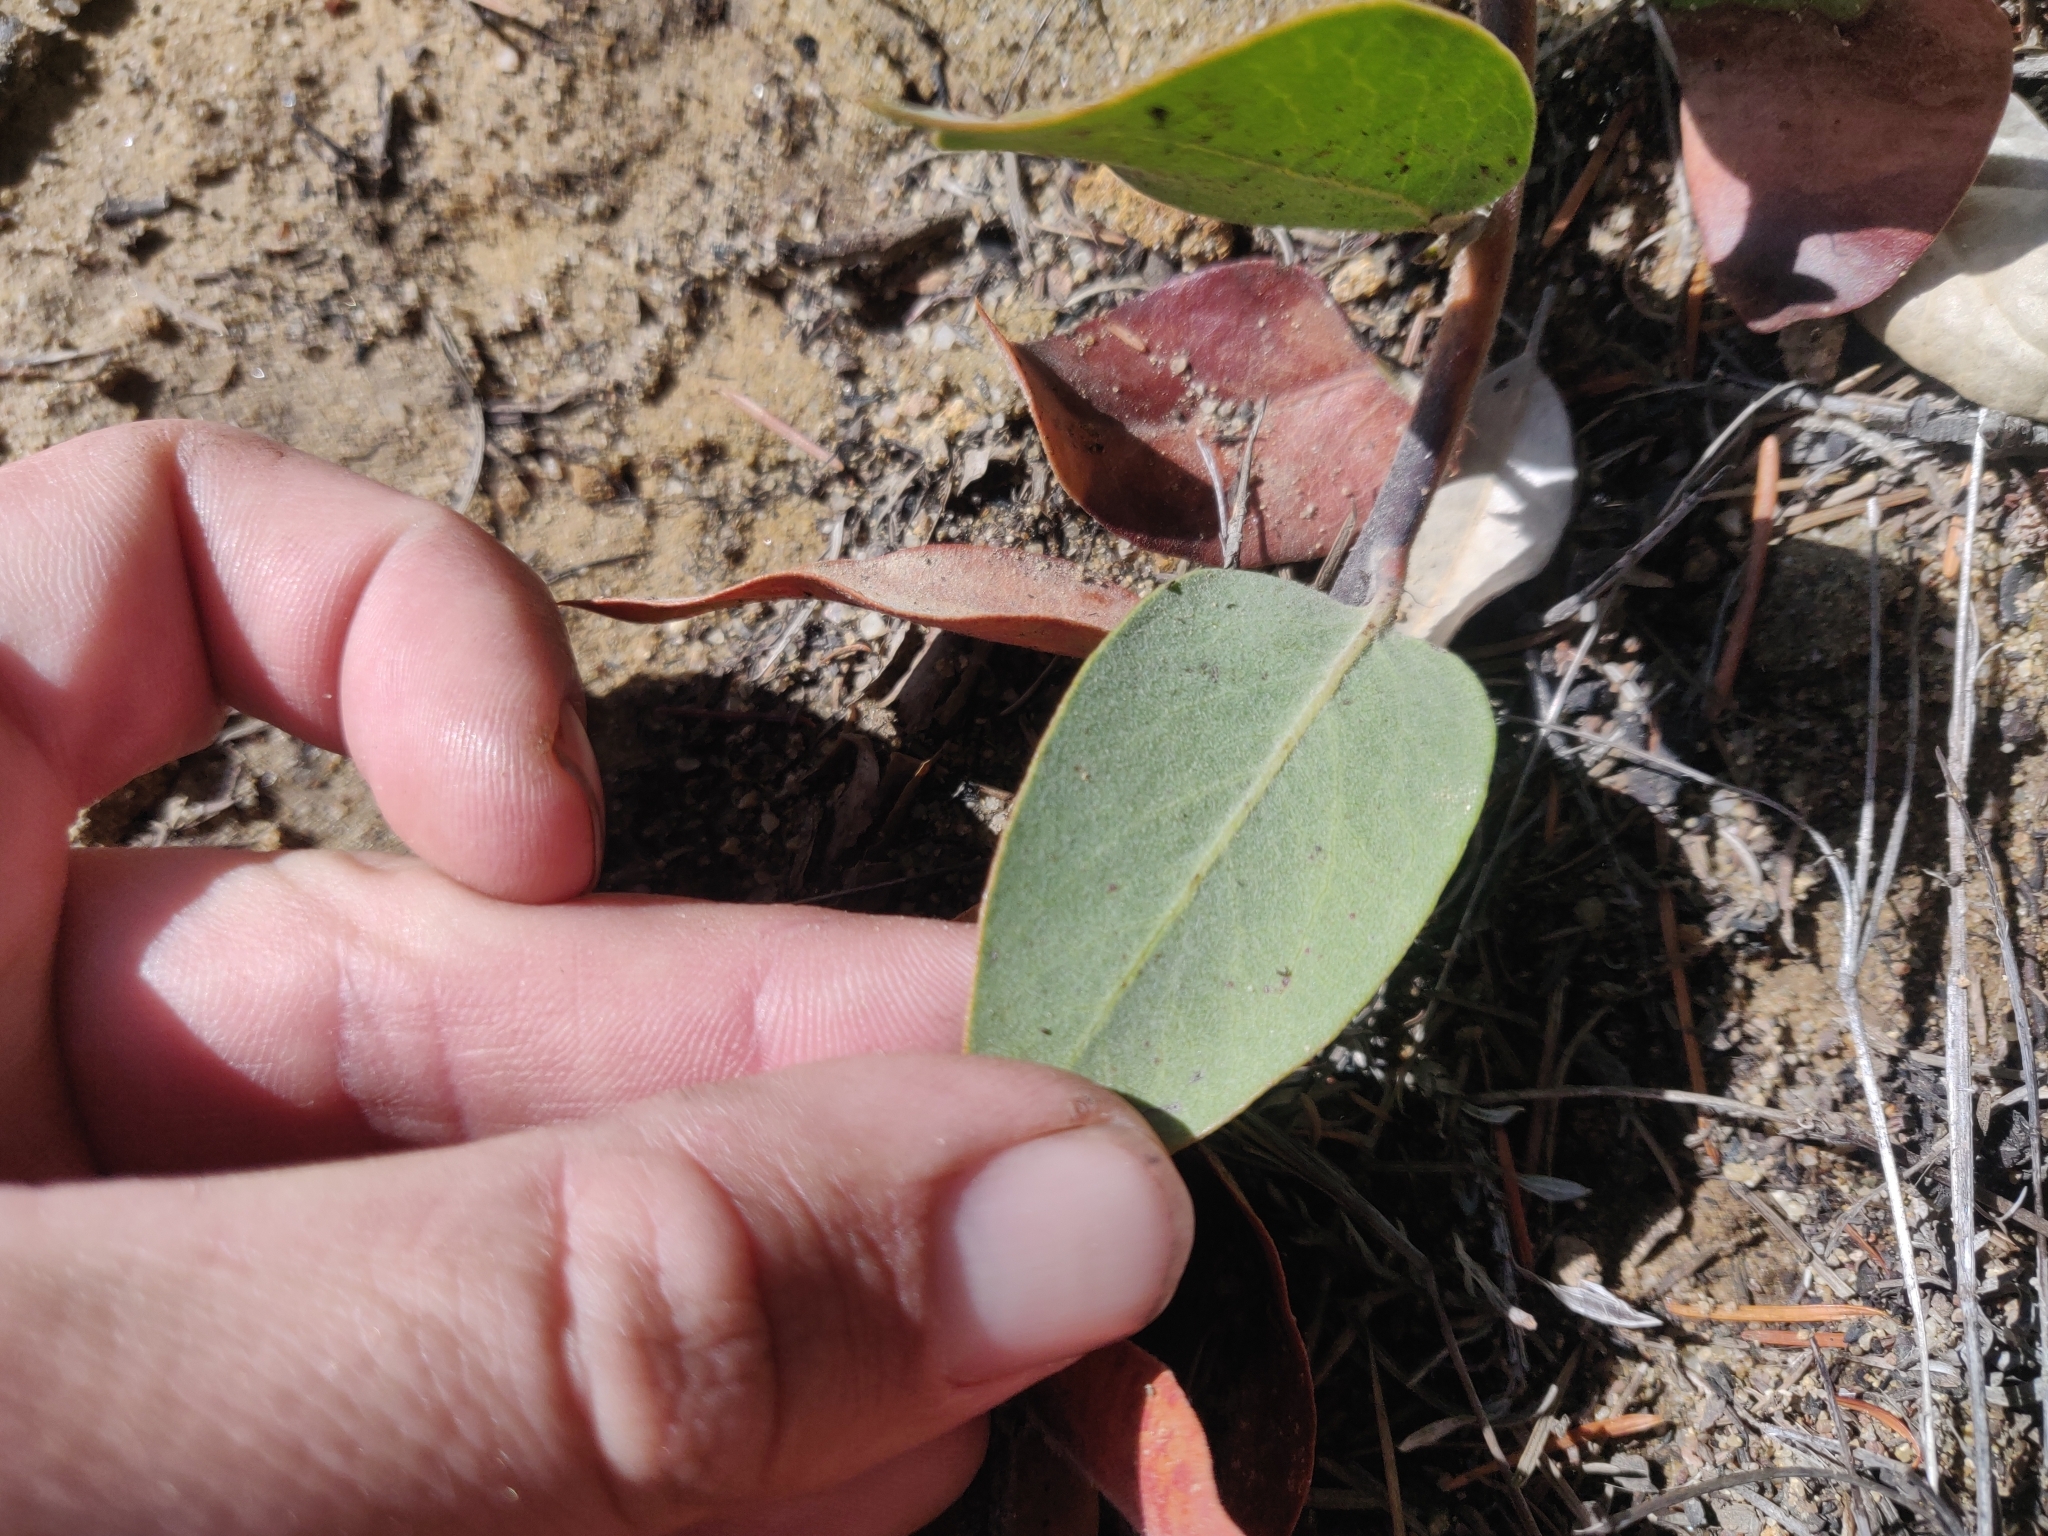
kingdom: Plantae
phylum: Tracheophyta
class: Magnoliopsida
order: Ericales
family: Ericaceae
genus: Arctostaphylos
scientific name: Arctostaphylos crustacea
